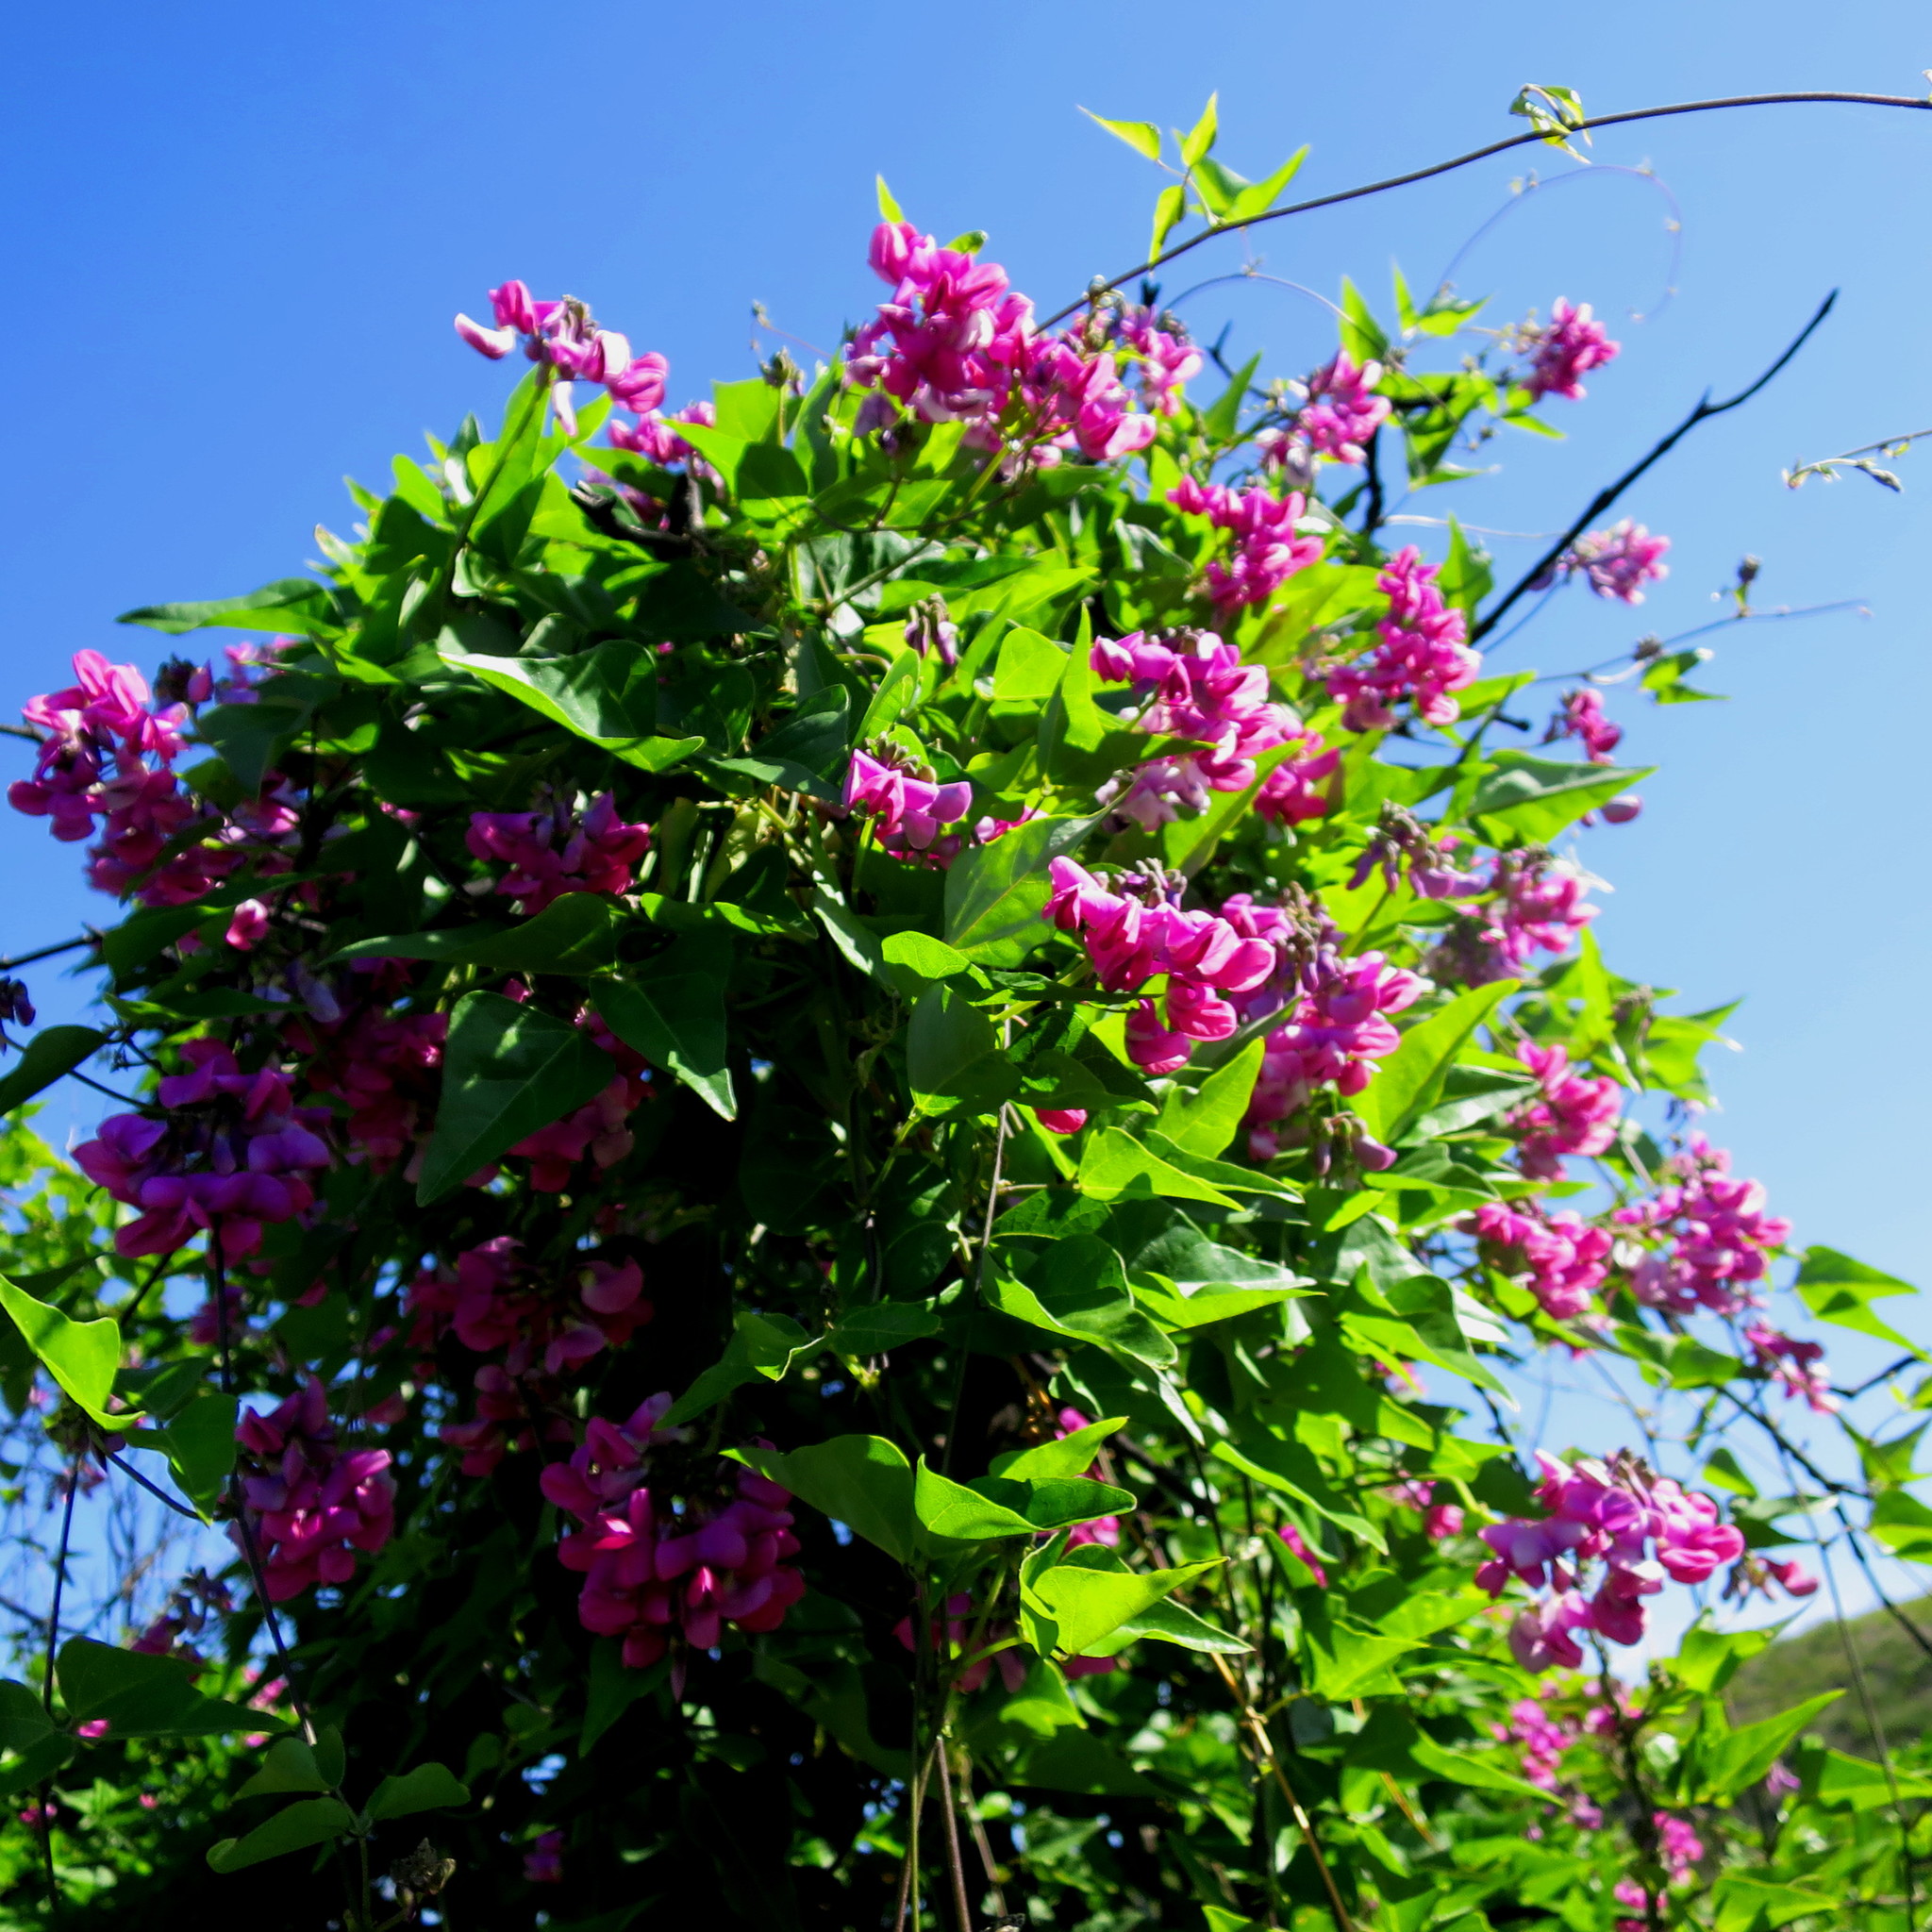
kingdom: Plantae
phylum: Tracheophyta
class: Magnoliopsida
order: Fabales
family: Fabaceae
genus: Dipogon
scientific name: Dipogon lignosus
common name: Okie bean
